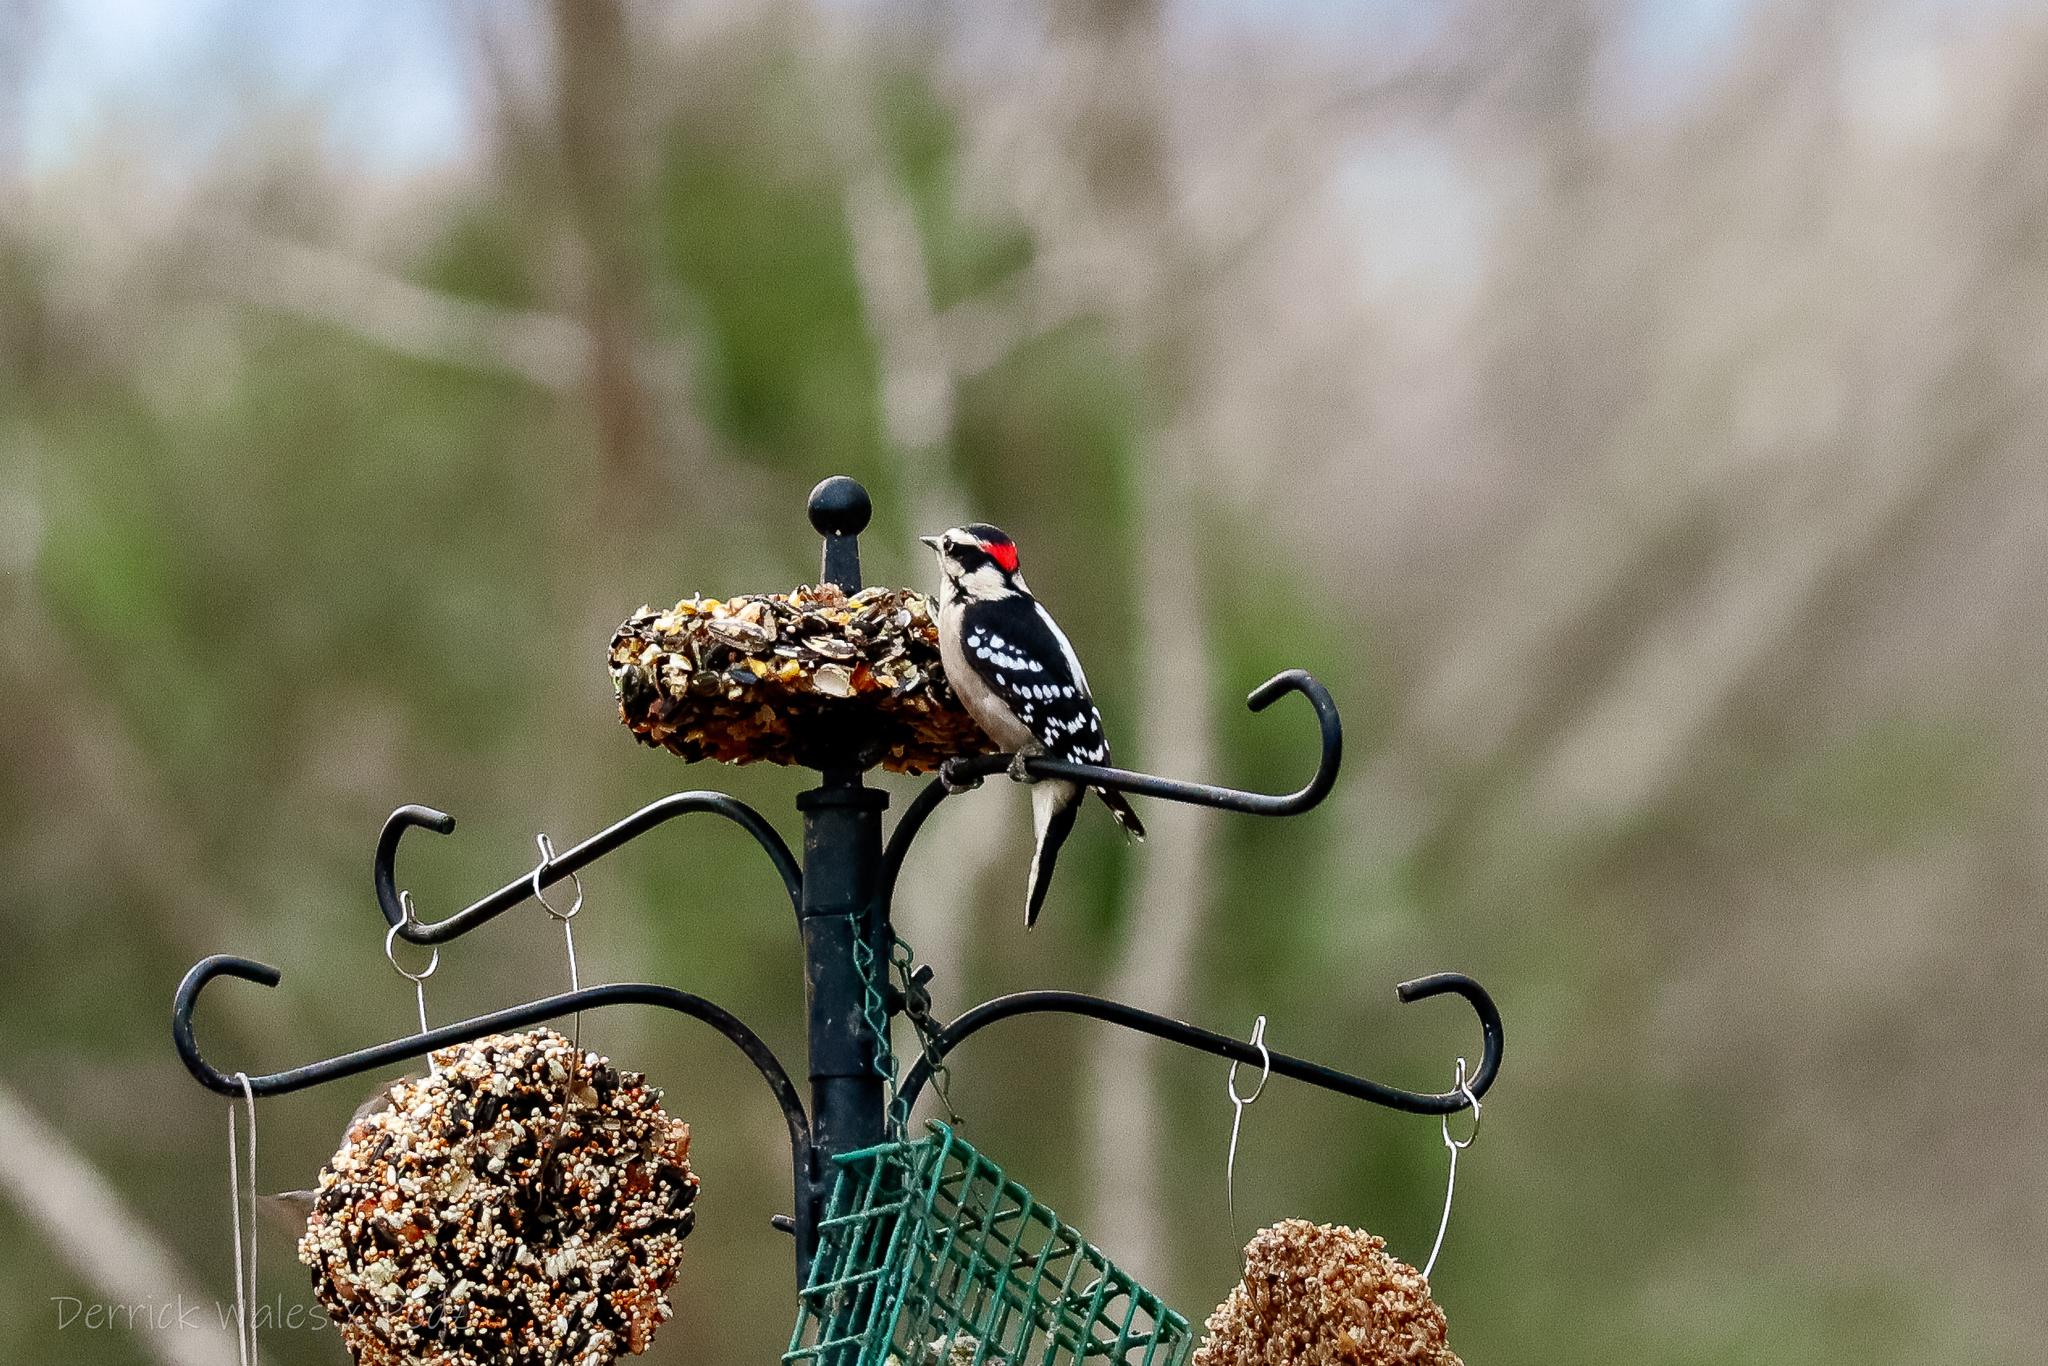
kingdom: Animalia
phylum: Chordata
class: Aves
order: Piciformes
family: Picidae
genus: Dryobates
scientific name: Dryobates pubescens
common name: Downy woodpecker
